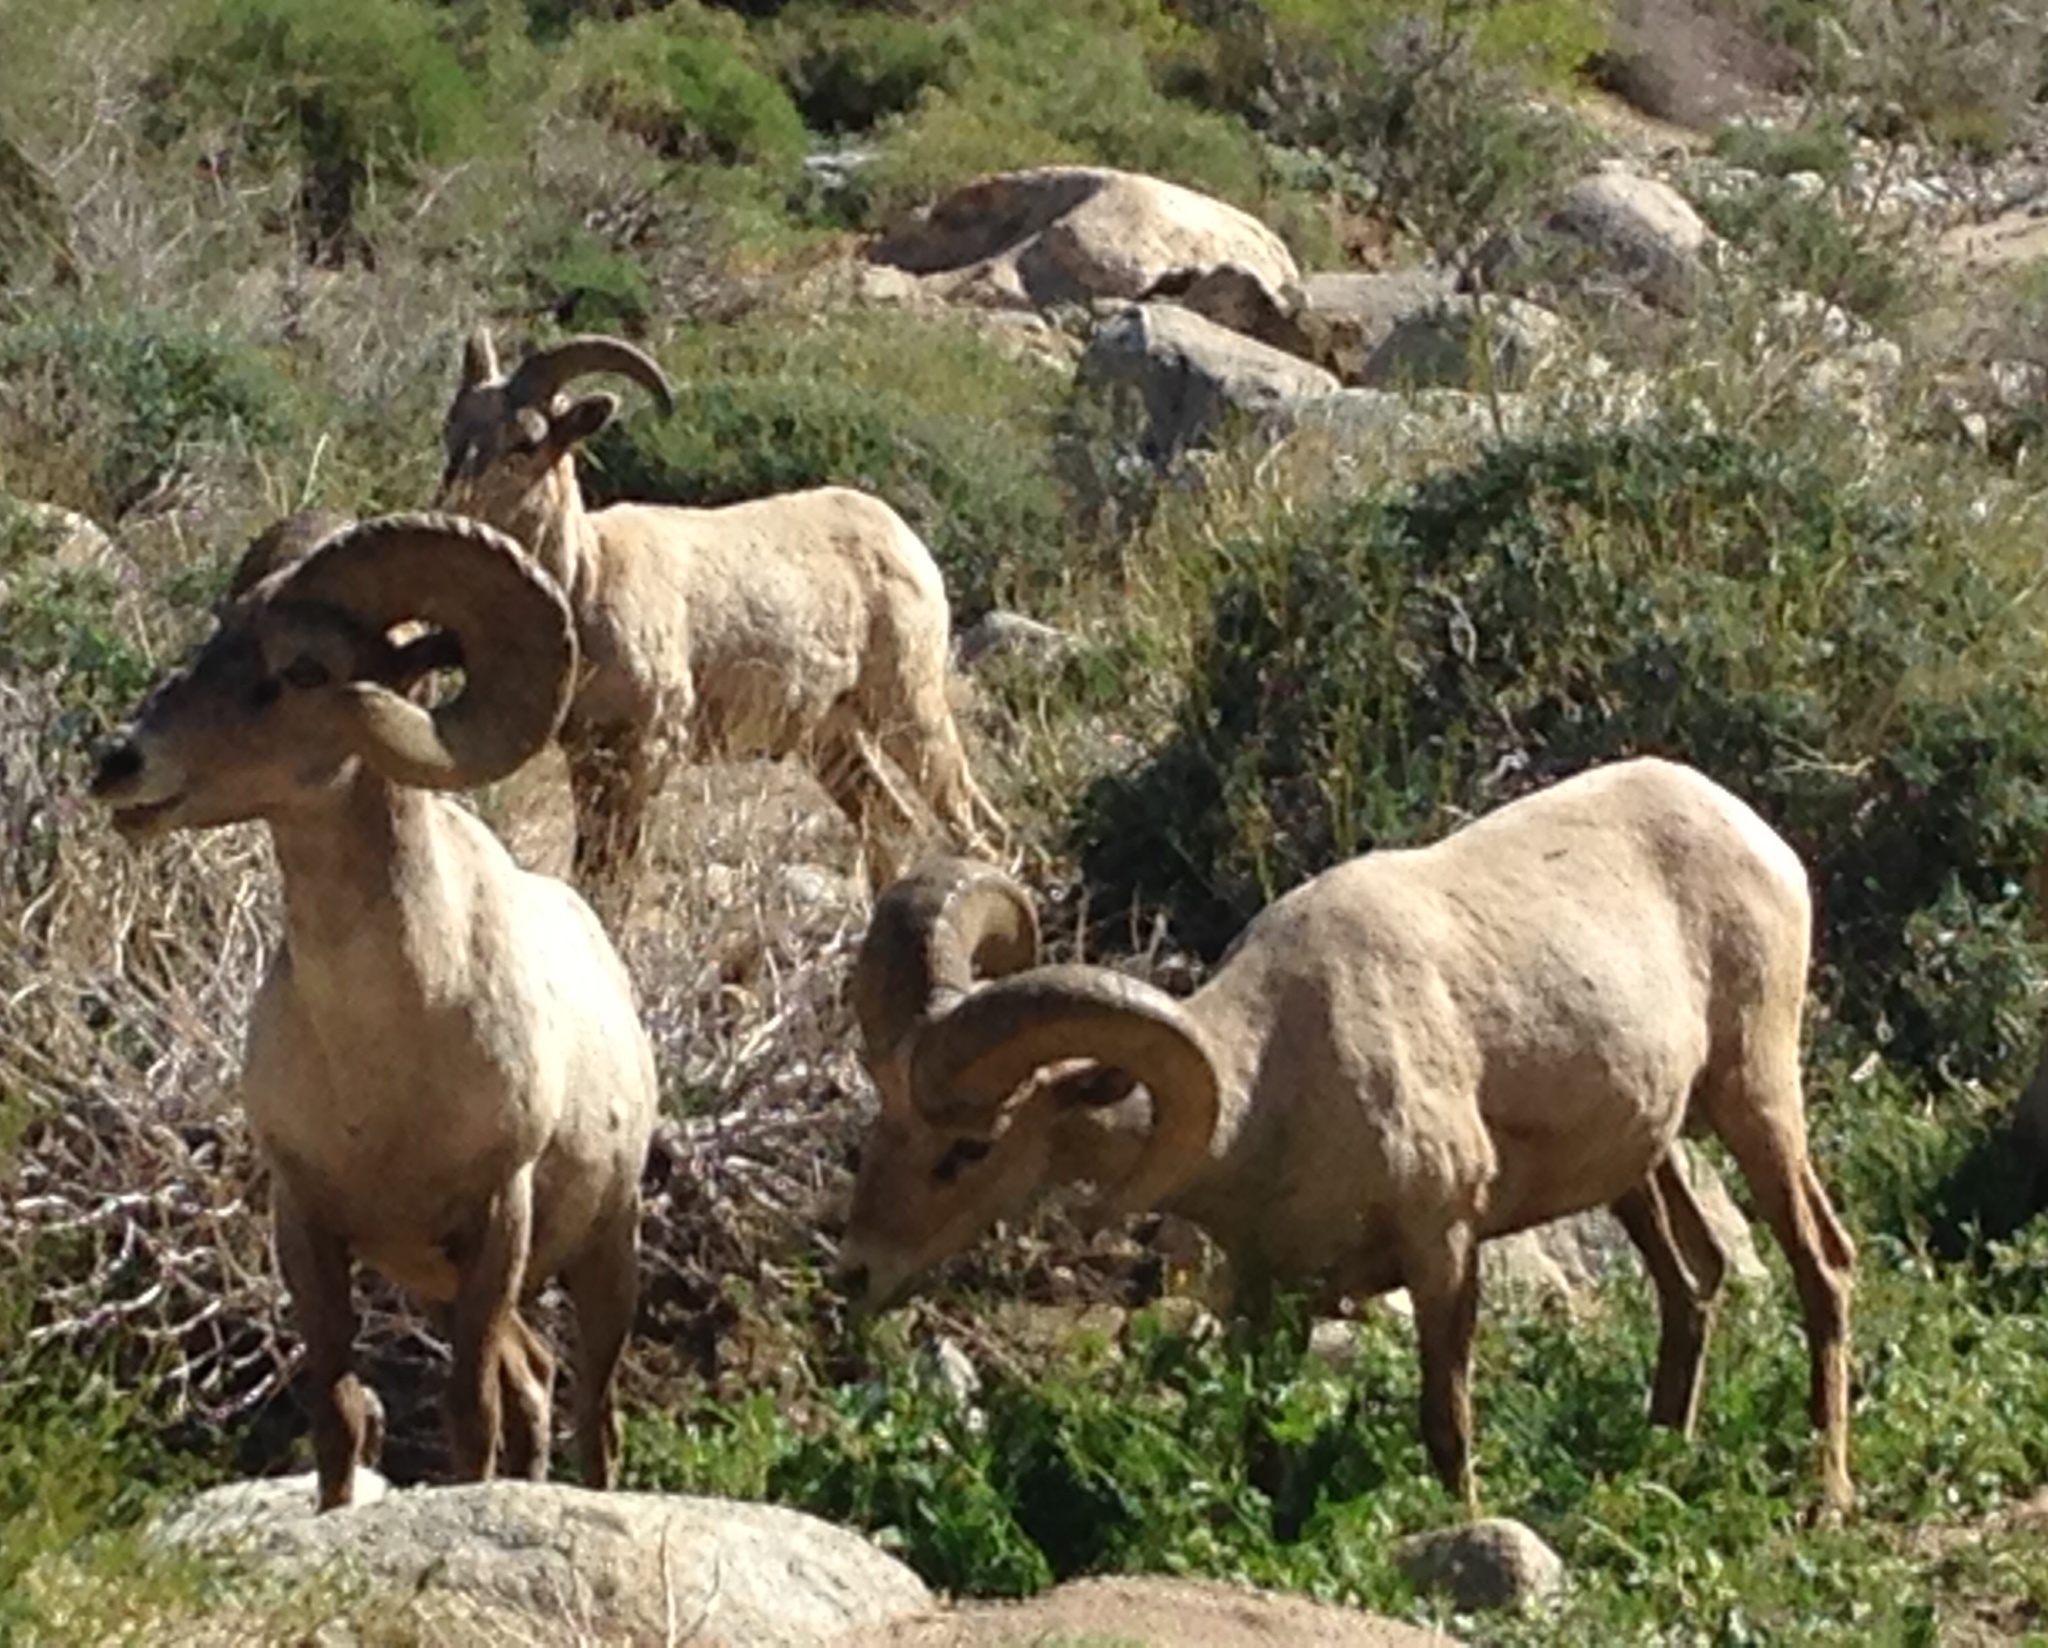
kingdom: Animalia
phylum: Chordata
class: Mammalia
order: Artiodactyla
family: Bovidae
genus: Ovis
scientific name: Ovis canadensis
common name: Bighorn sheep
